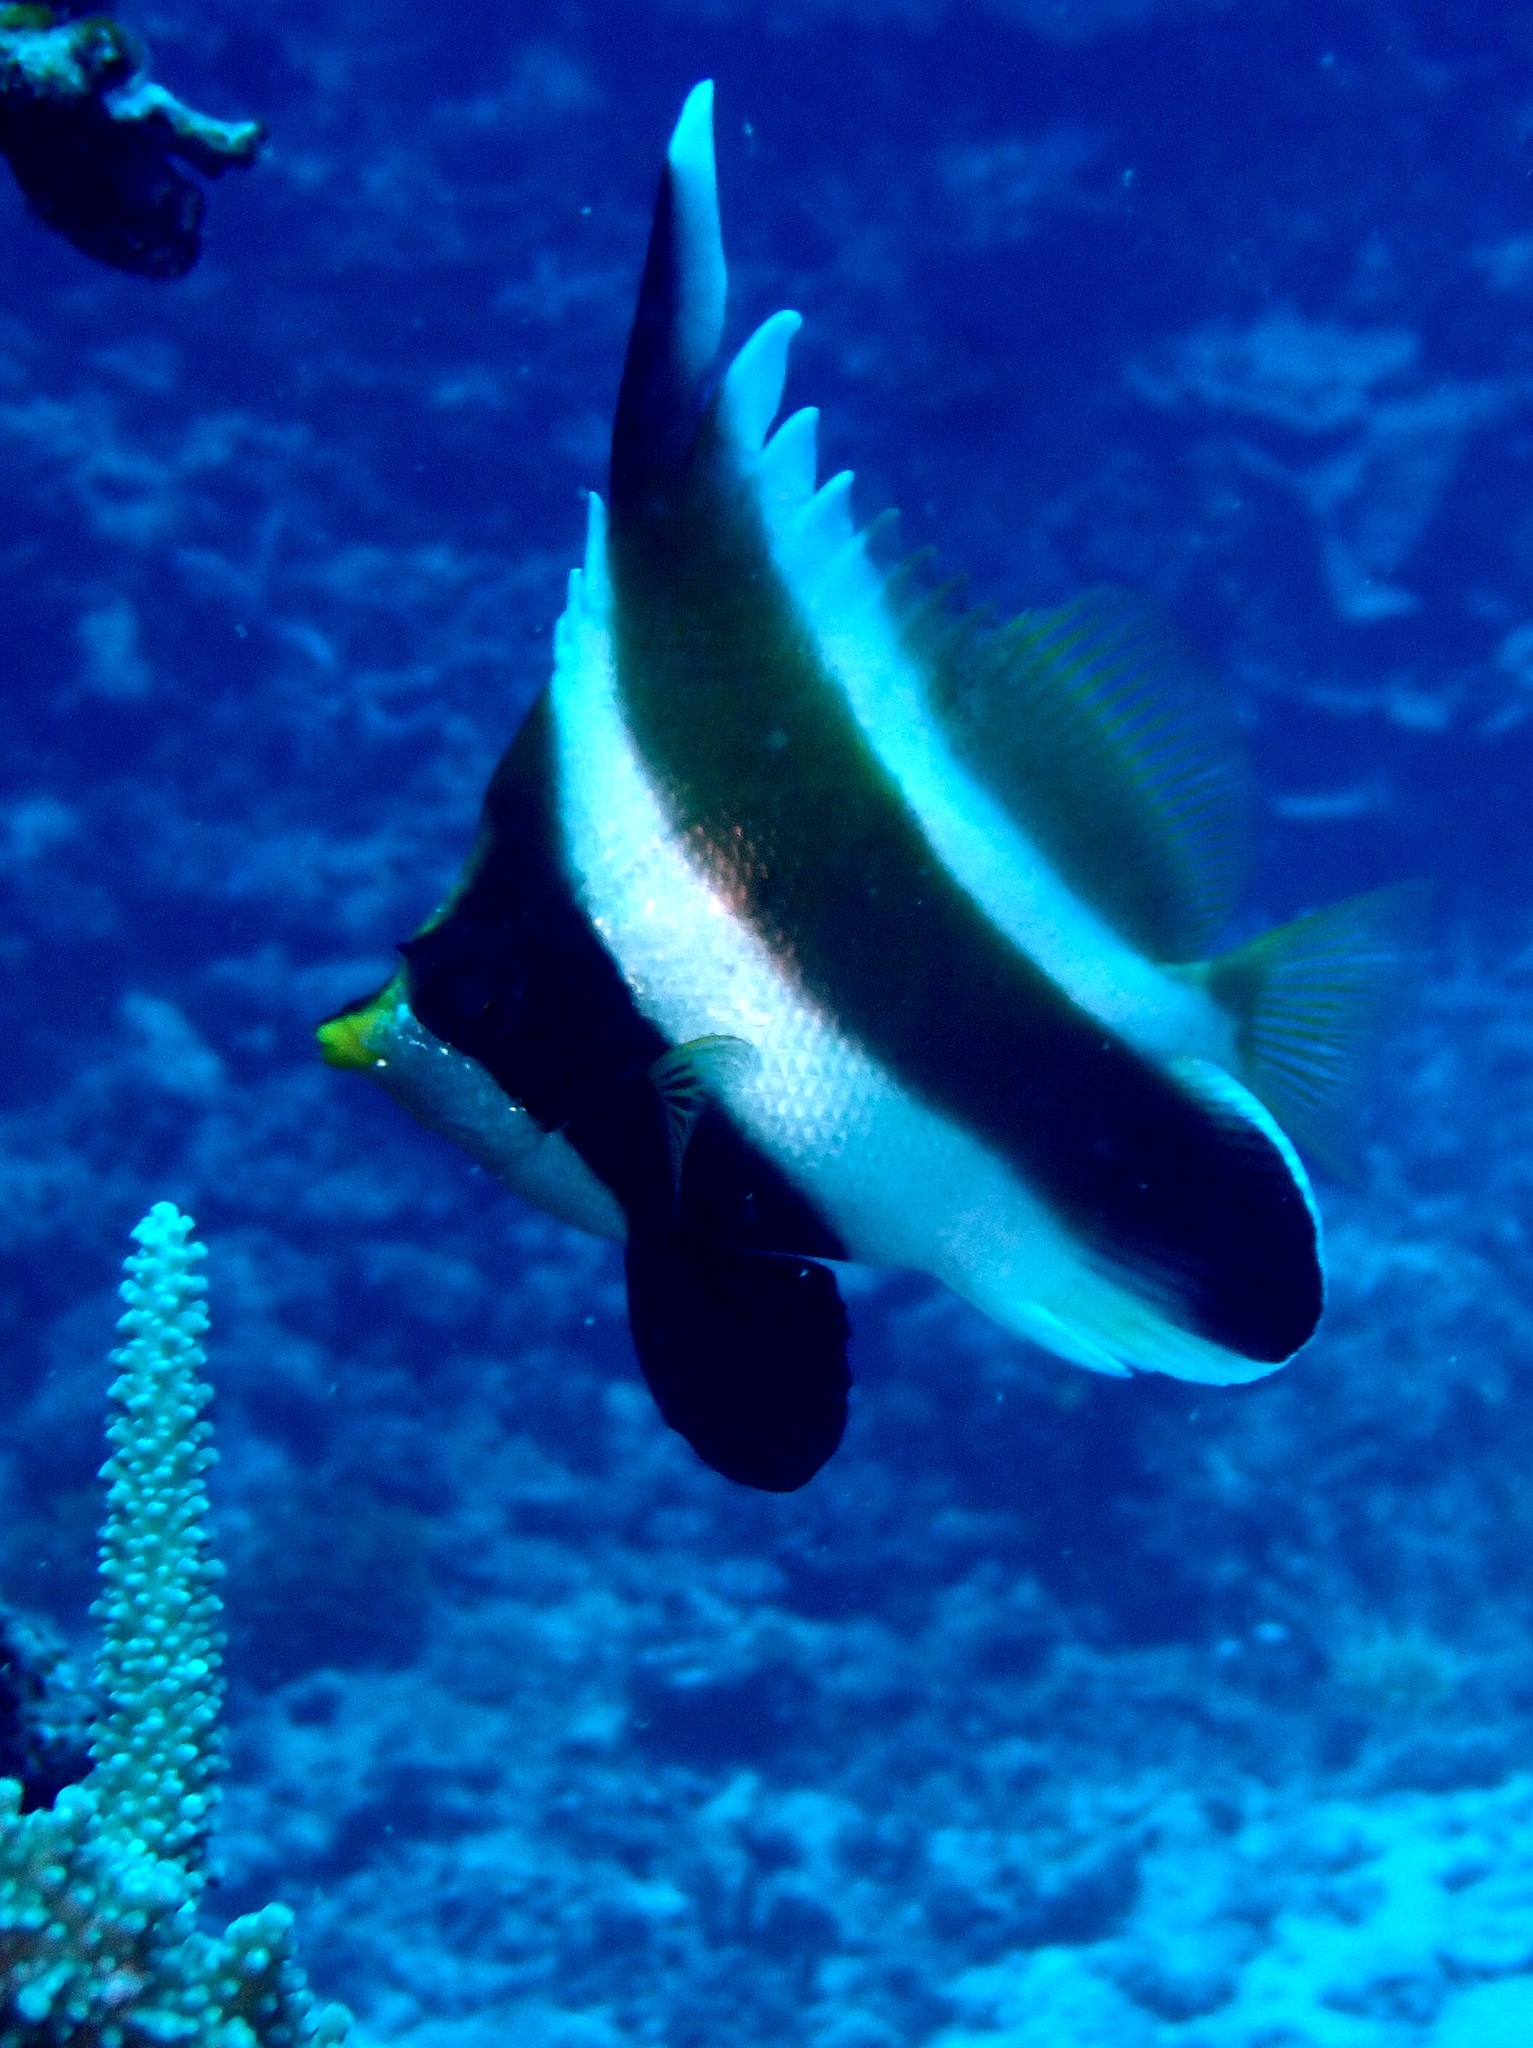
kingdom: Animalia
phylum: Chordata
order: Perciformes
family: Chaetodontidae
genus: Heniochus
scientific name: Heniochus chrysostomus
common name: Horned bannerfish
